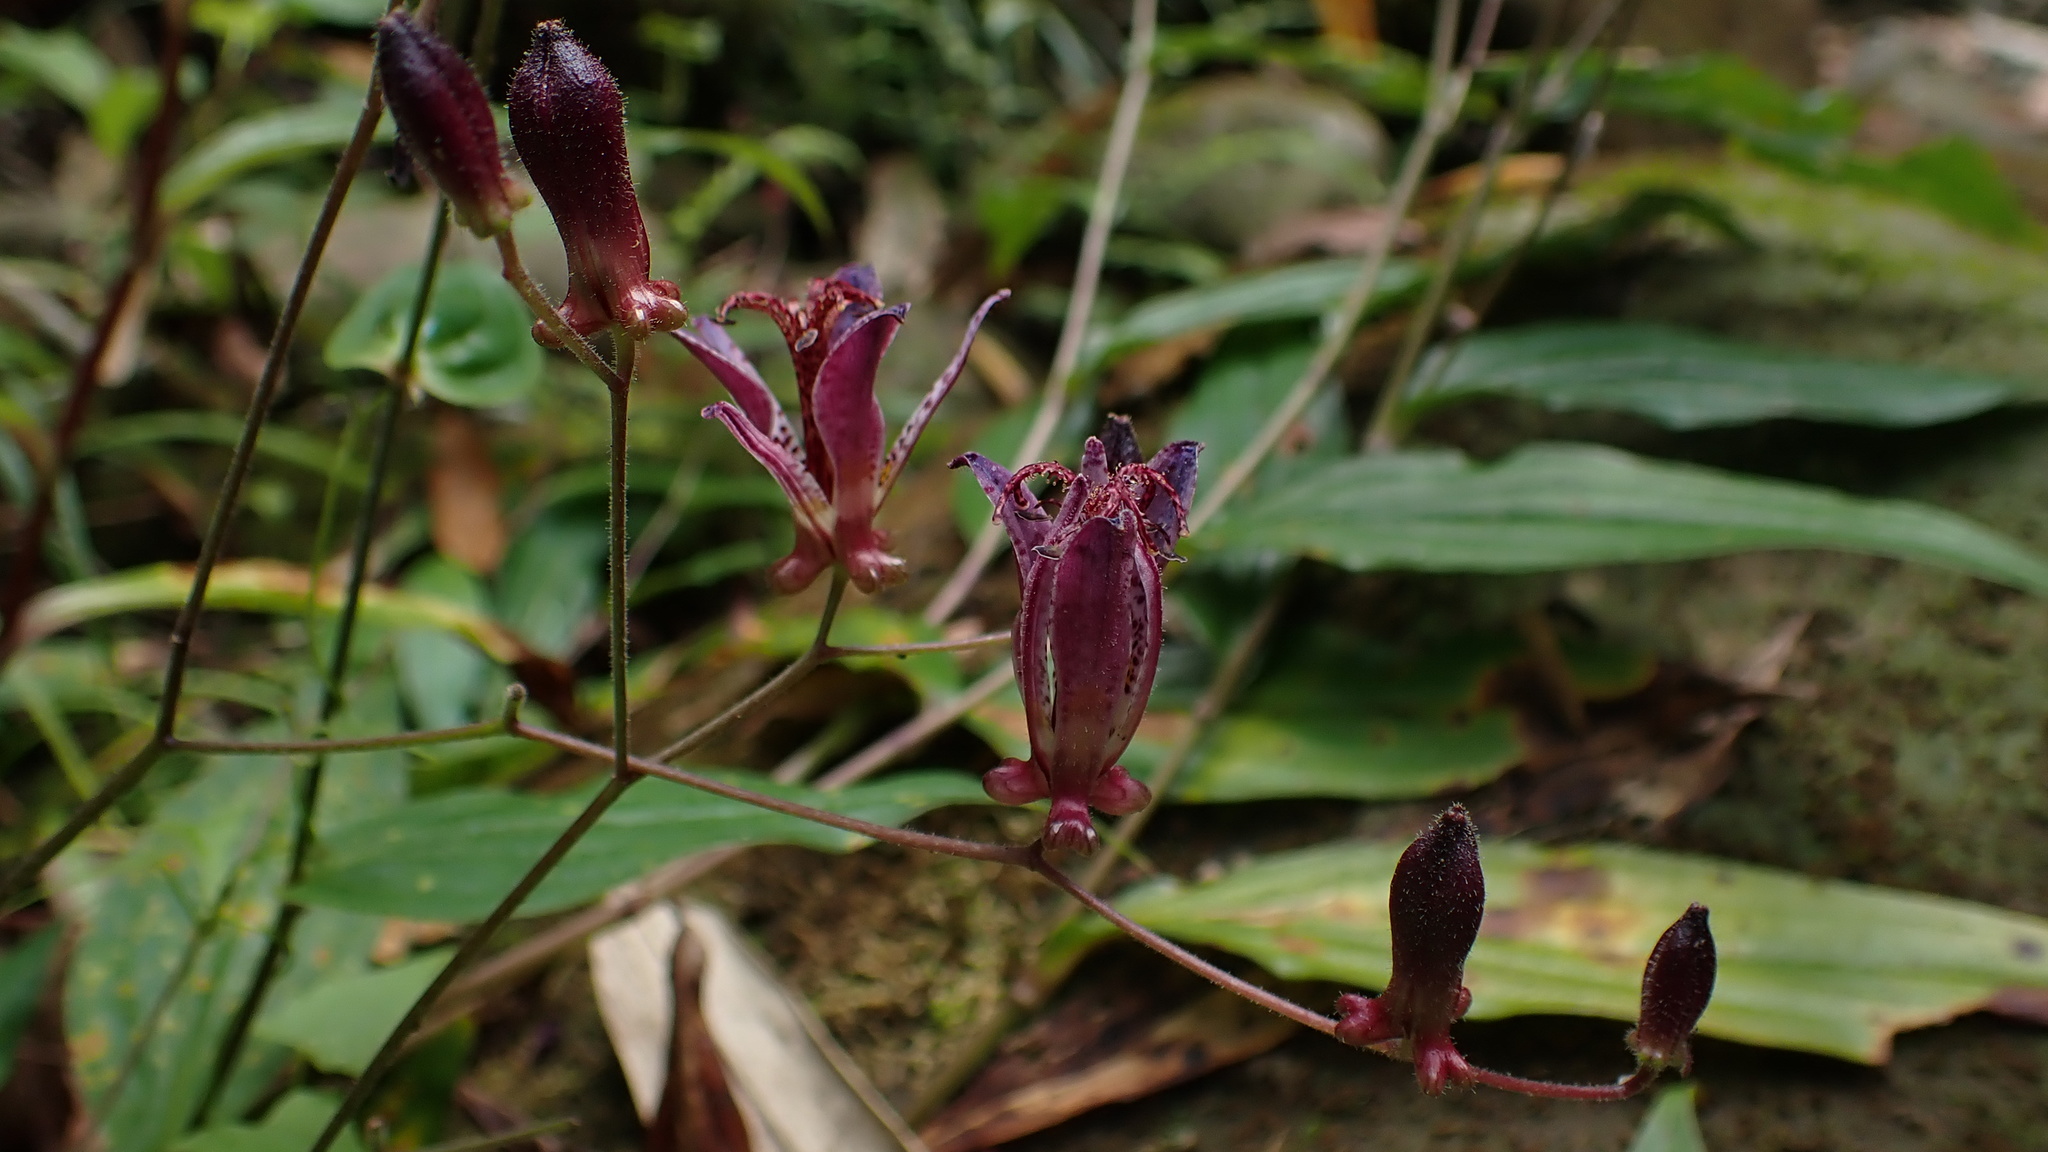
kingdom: Plantae
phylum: Tracheophyta
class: Liliopsida
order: Liliales
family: Liliaceae
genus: Tricyrtis
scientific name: Tricyrtis formosana
